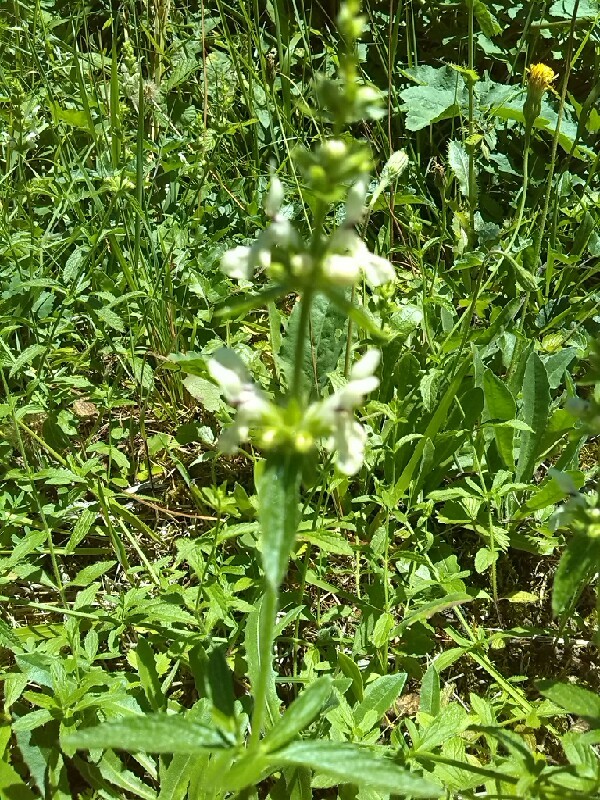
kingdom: Plantae
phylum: Tracheophyta
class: Magnoliopsida
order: Lamiales
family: Lamiaceae
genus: Stachys
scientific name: Stachys recta
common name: Perennial yellow-woundwort
